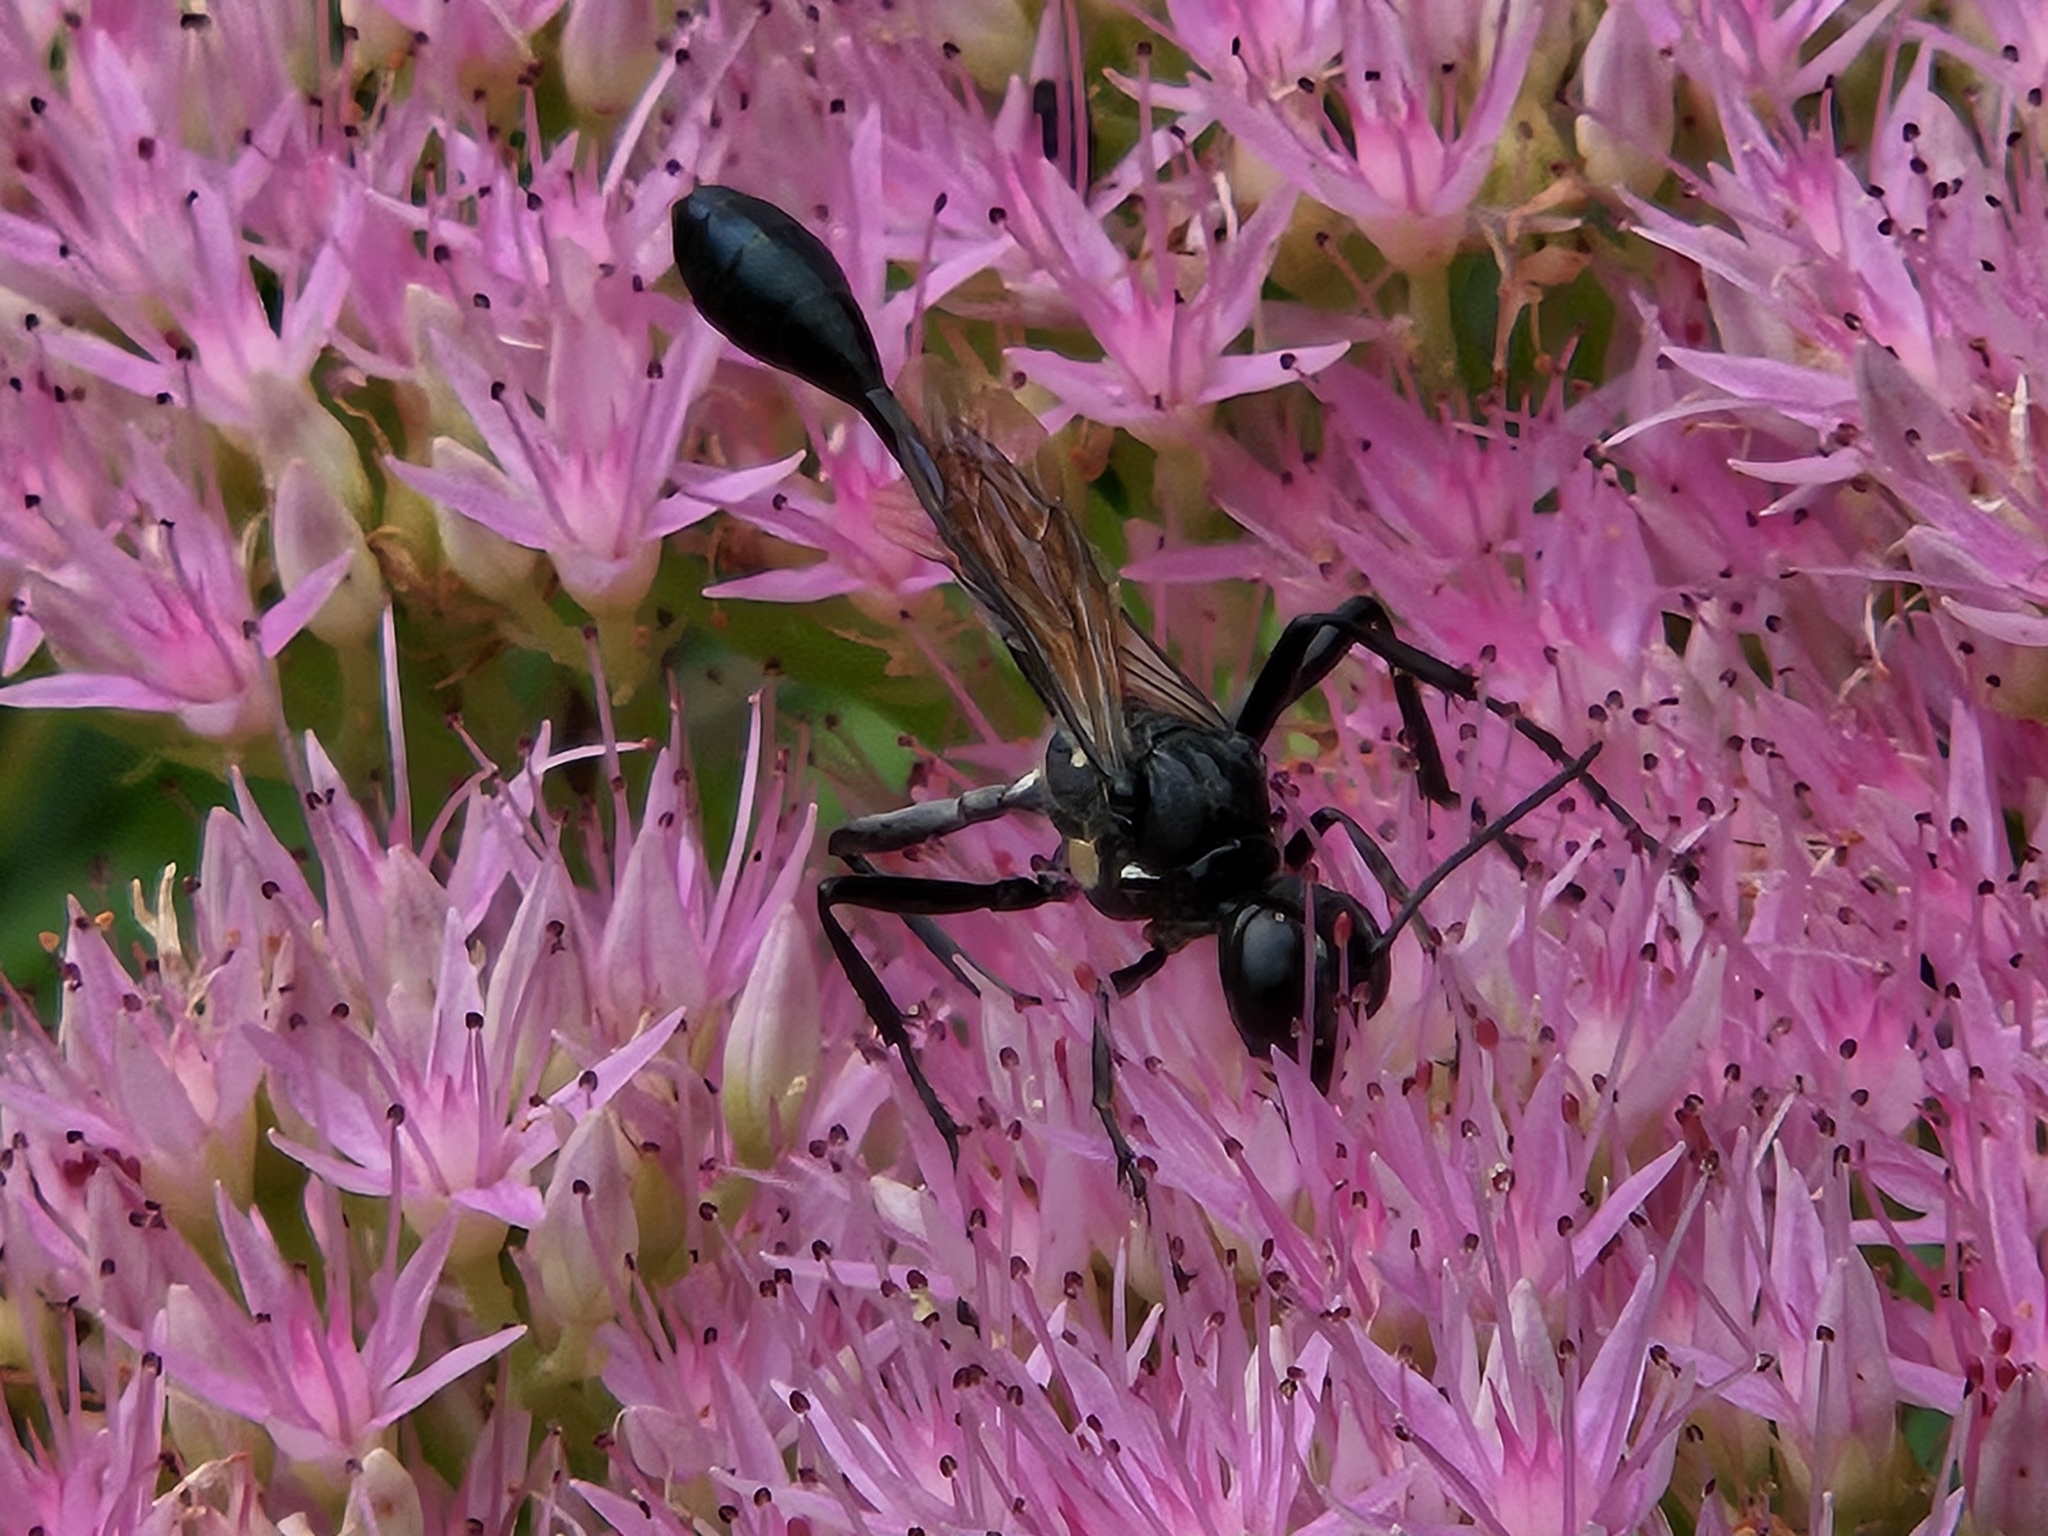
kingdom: Animalia
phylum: Arthropoda
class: Insecta
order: Hymenoptera
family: Sphecidae
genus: Eremnophila
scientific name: Eremnophila aureonotata
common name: Gold-marked thread-waisted wasp
